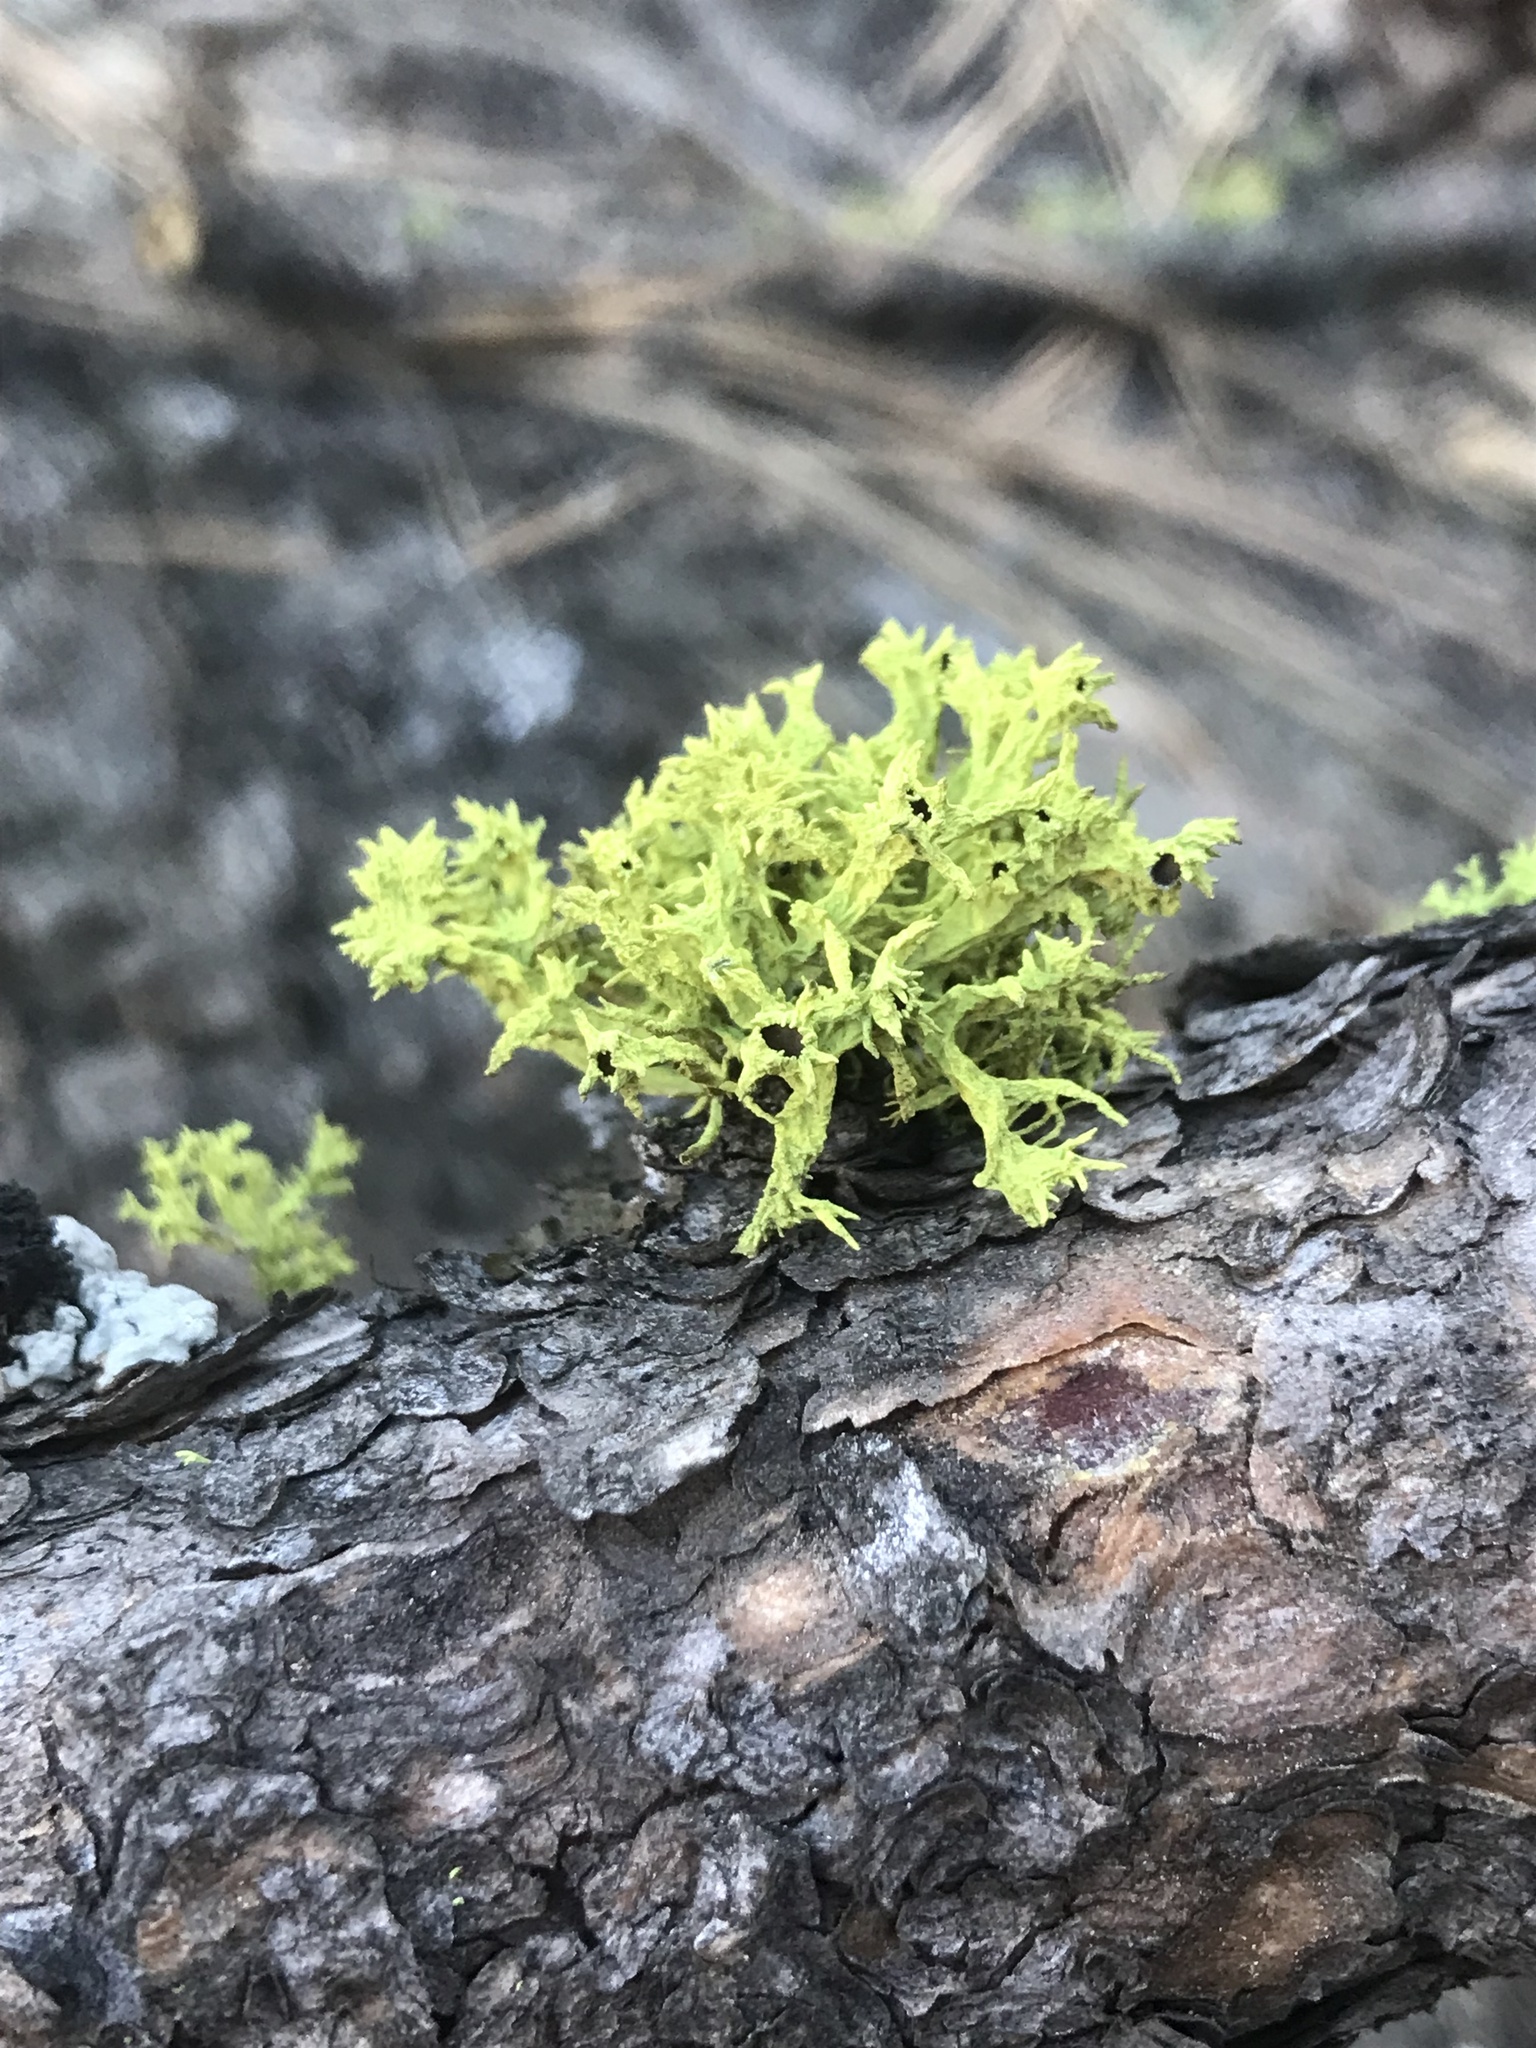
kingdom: Fungi
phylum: Ascomycota
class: Lecanoromycetes
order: Lecanorales
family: Parmeliaceae
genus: Letharia
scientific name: Letharia columbiana
